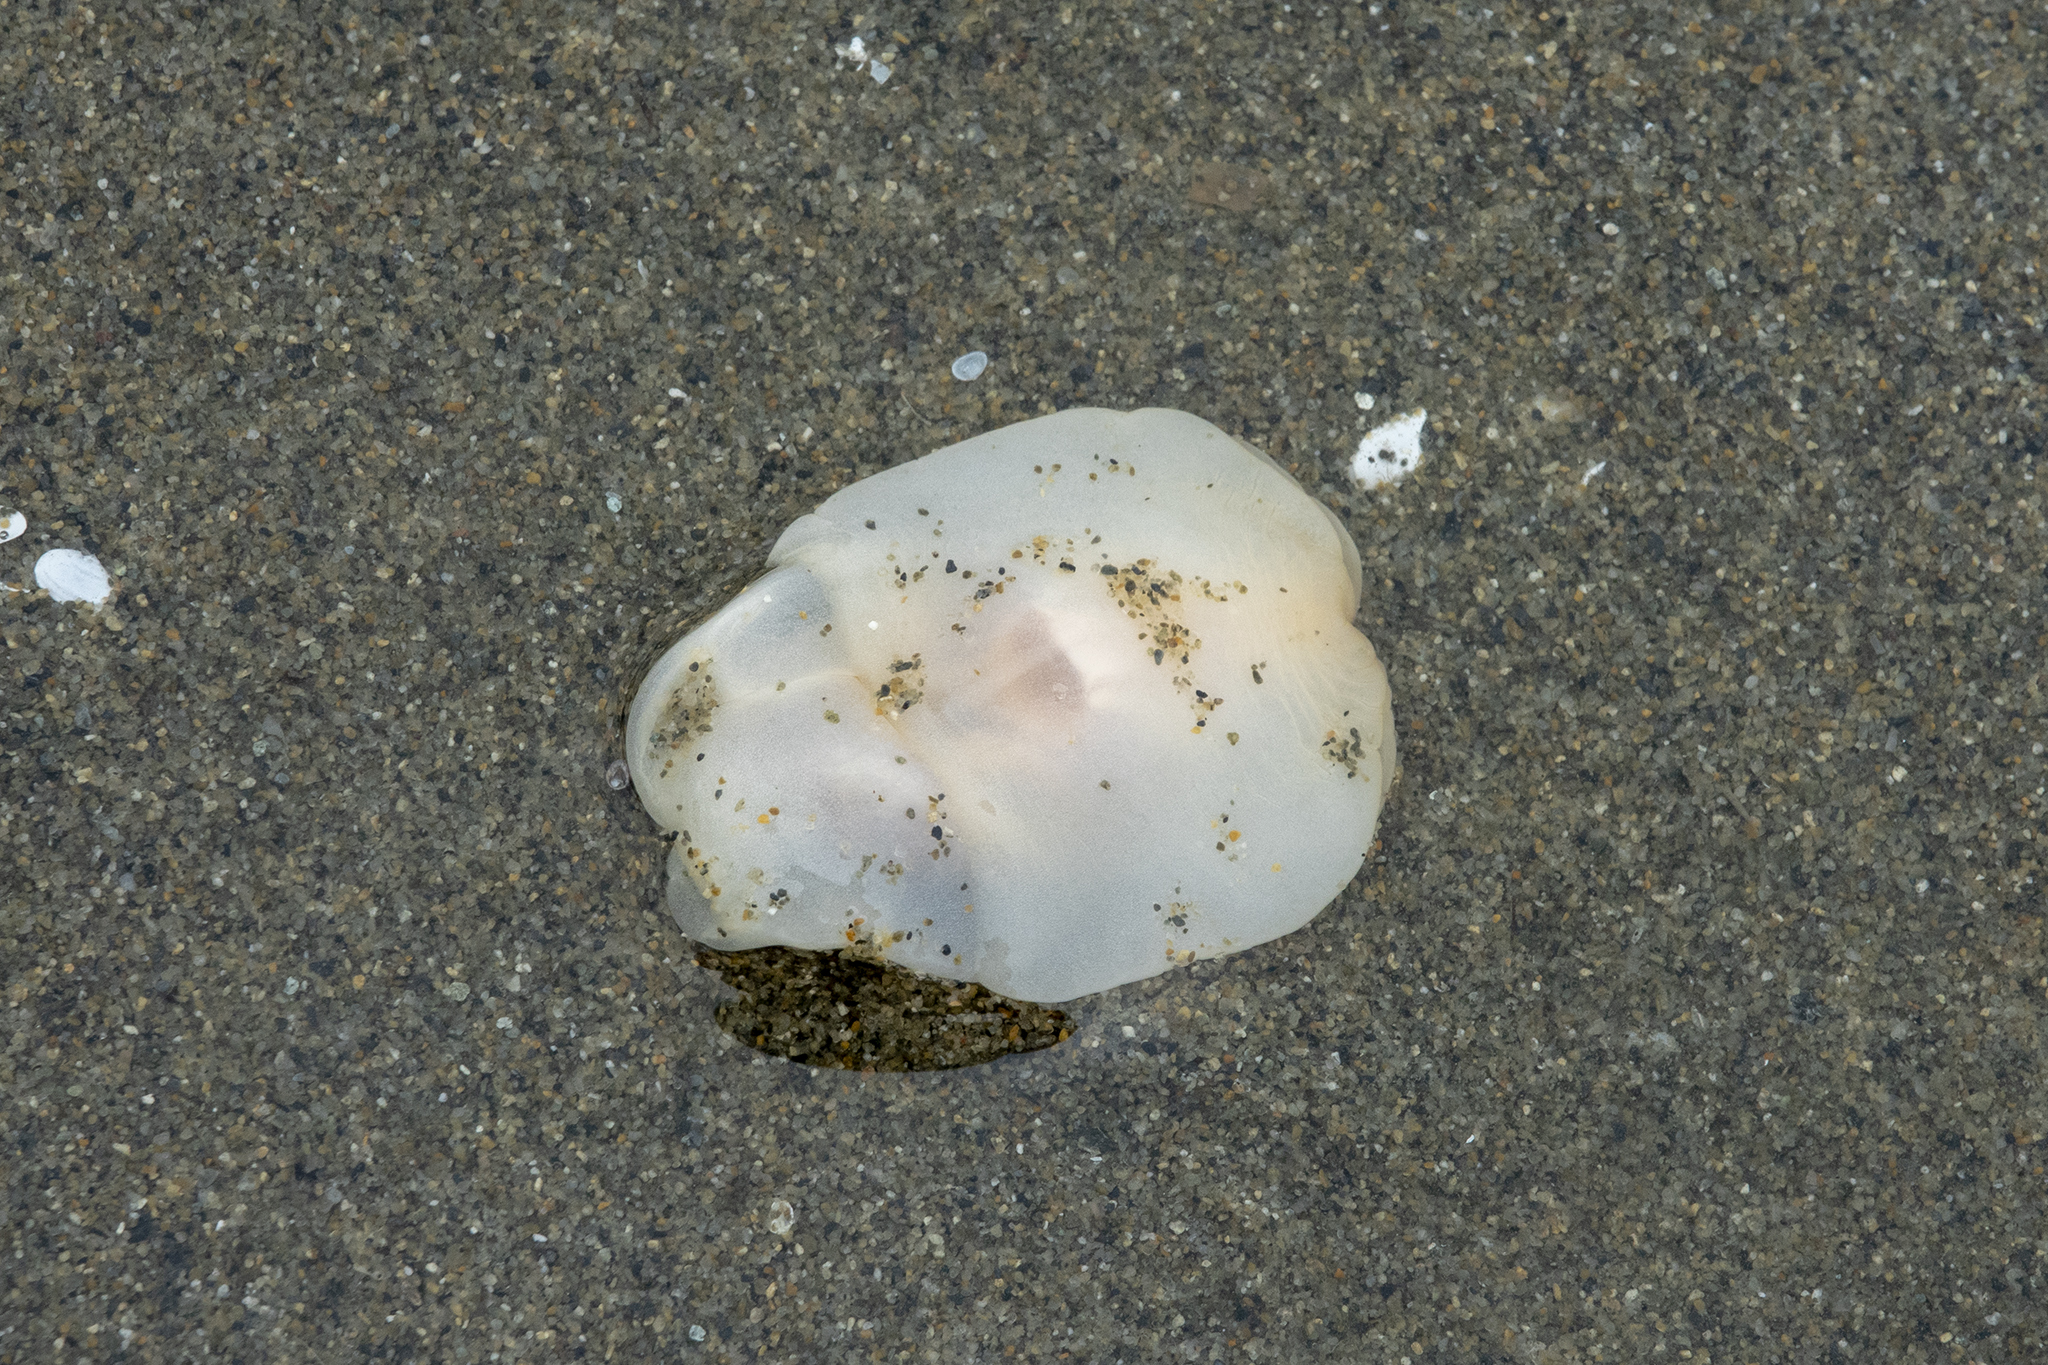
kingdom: Animalia
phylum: Mollusca
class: Gastropoda
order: Cephalaspidea
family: Philinidae
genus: Philine
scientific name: Philine
